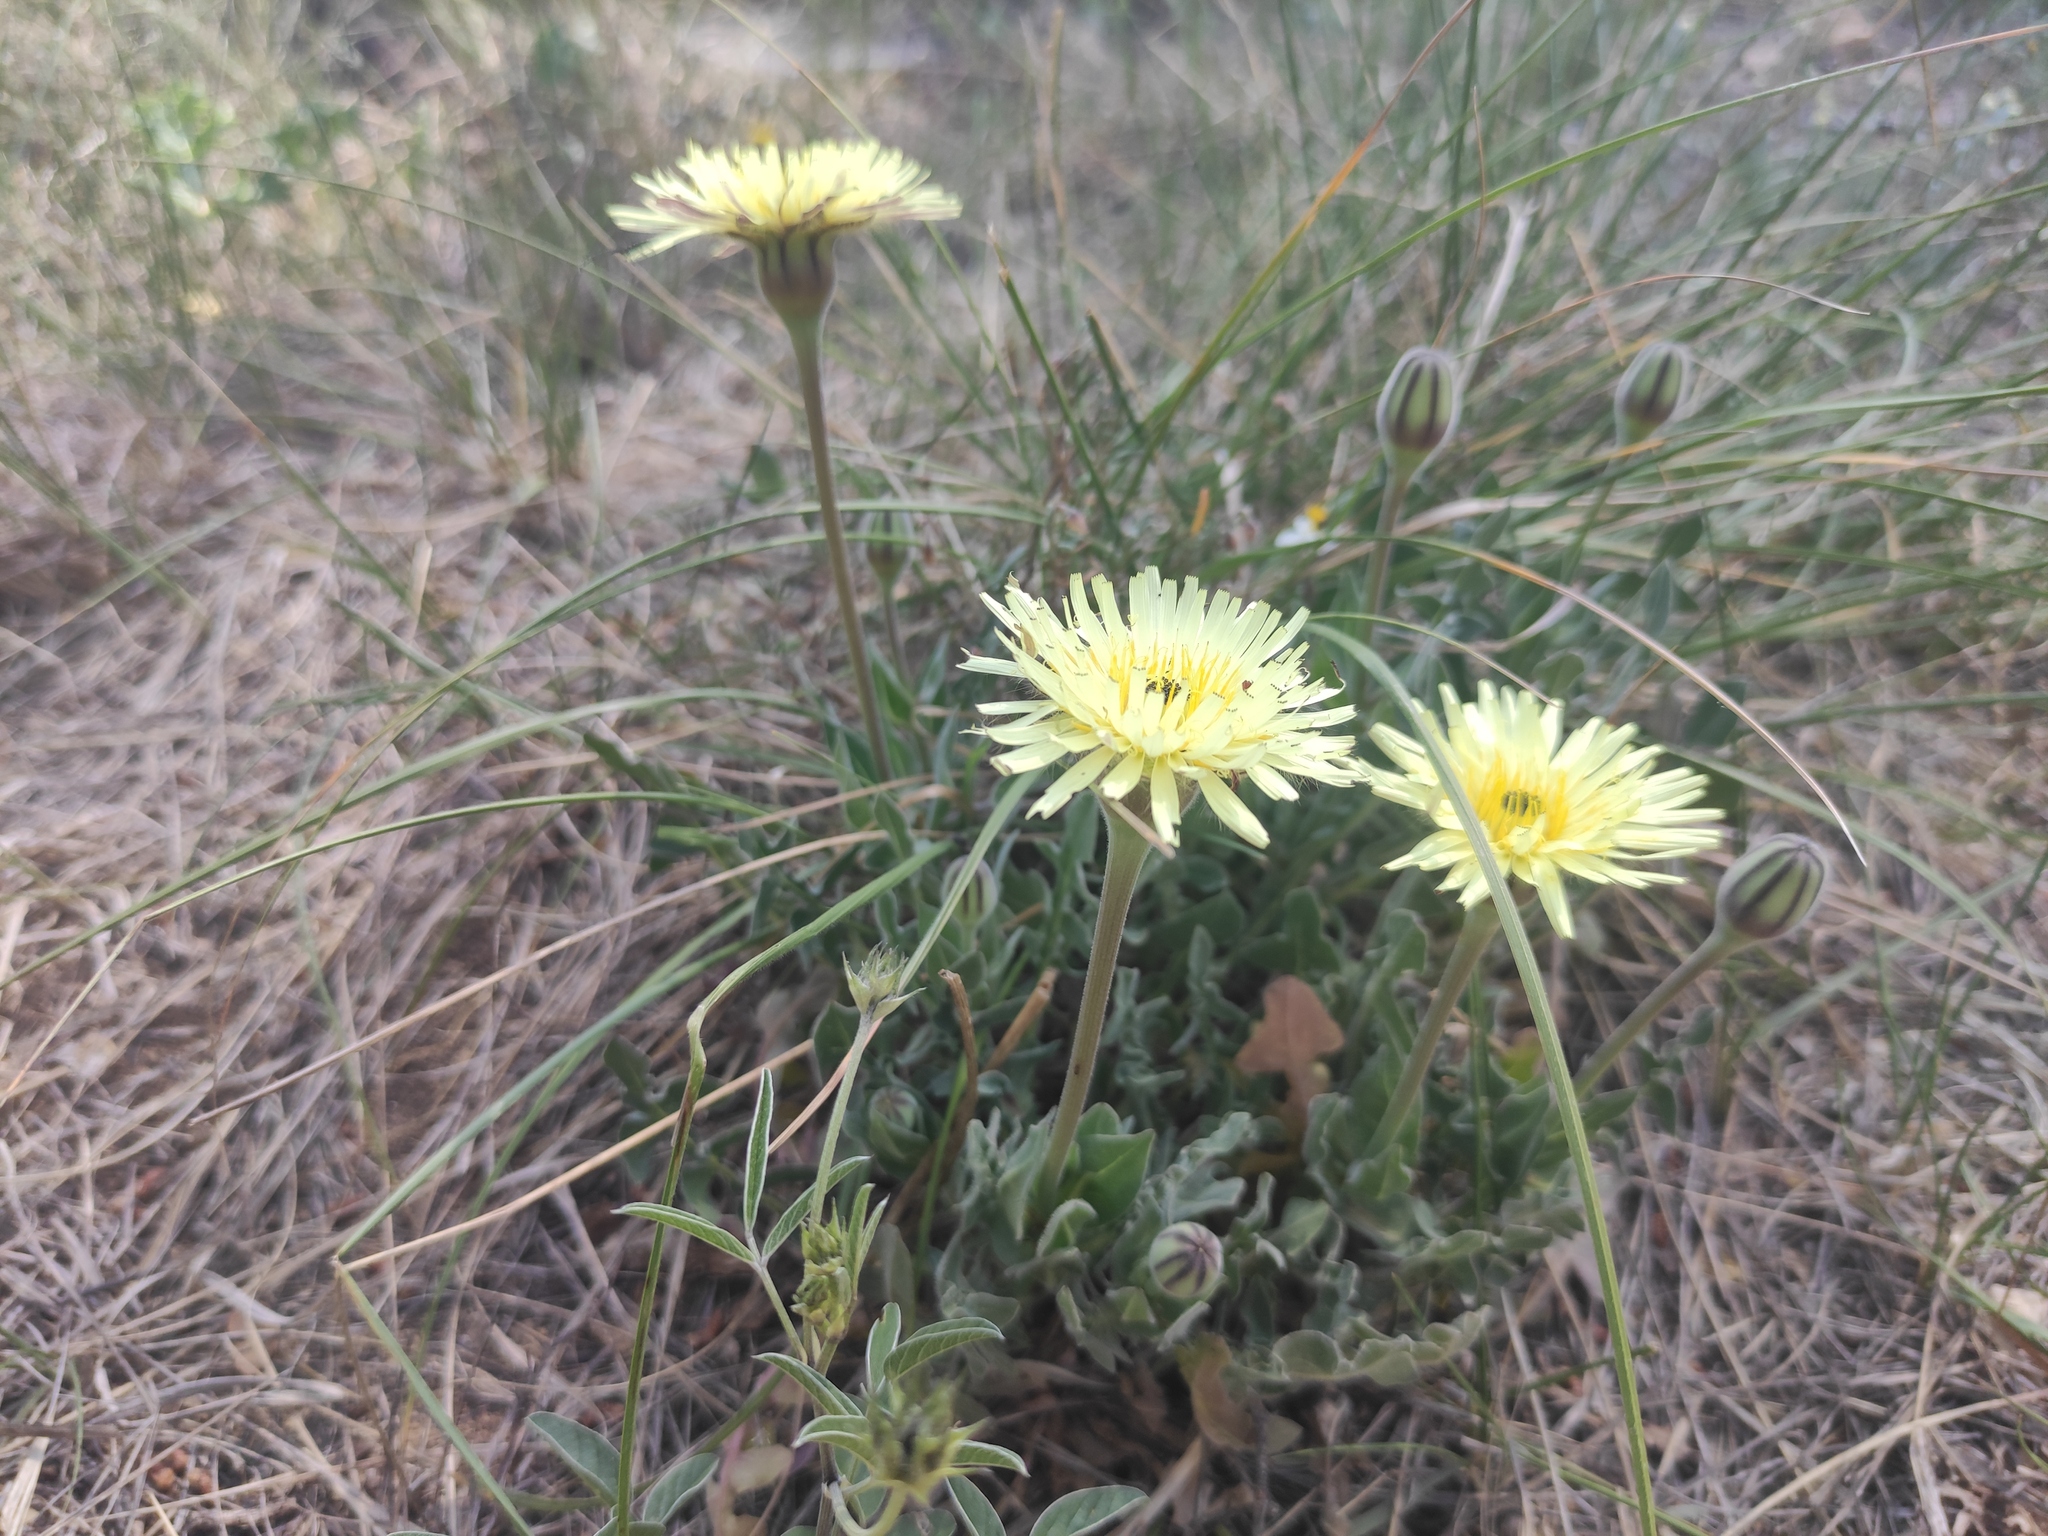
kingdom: Plantae
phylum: Tracheophyta
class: Magnoliopsida
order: Asterales
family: Asteraceae
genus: Urospermum
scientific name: Urospermum dalechampii
